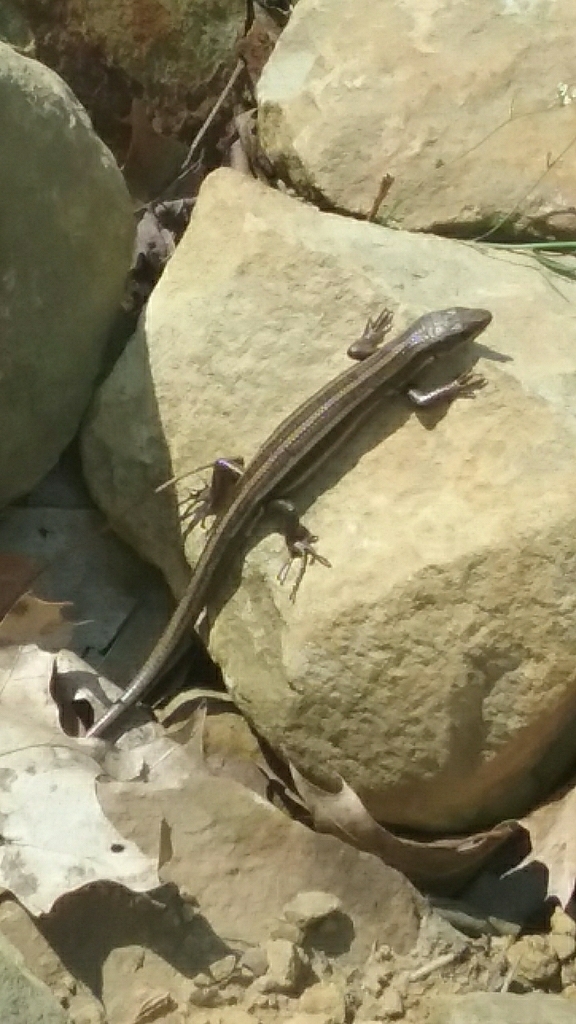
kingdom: Animalia
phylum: Chordata
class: Squamata
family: Scincidae
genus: Plestiodon
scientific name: Plestiodon fasciatus
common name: Five-lined skink
